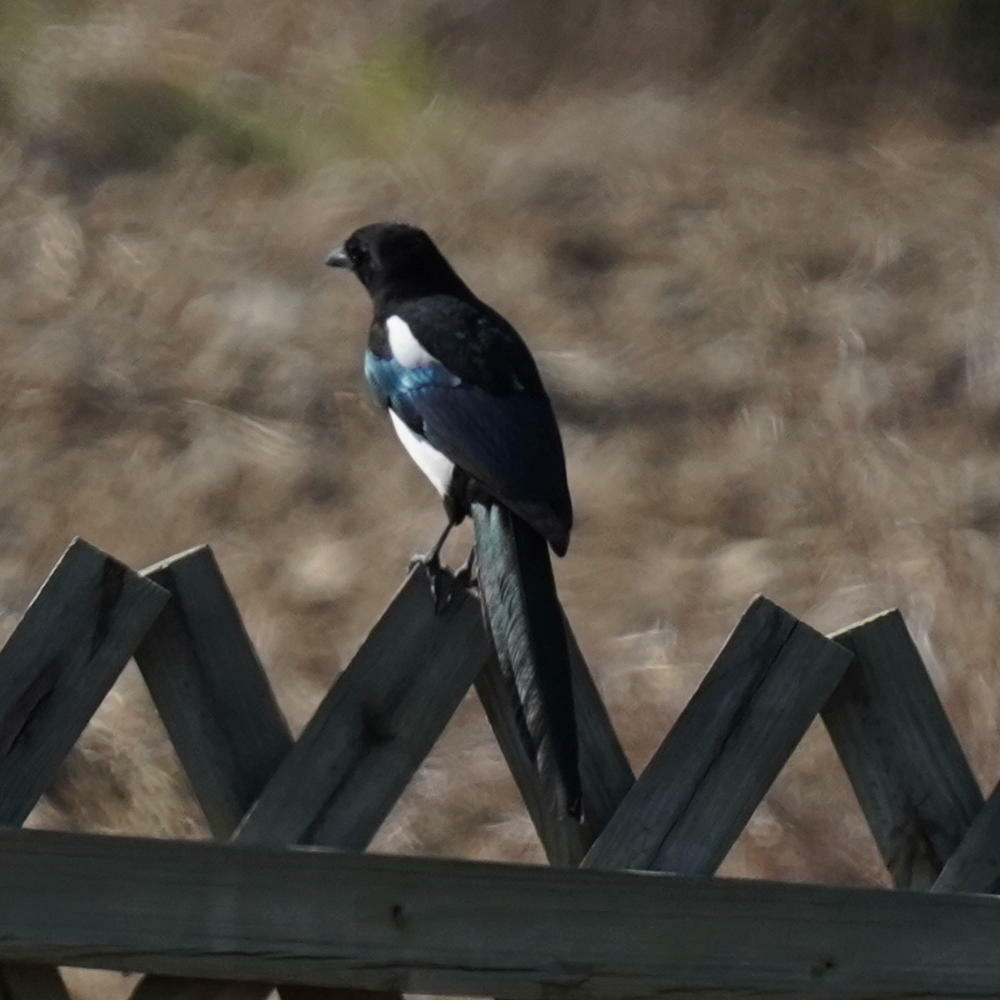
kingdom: Animalia
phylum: Chordata
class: Aves
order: Passeriformes
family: Corvidae
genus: Pica
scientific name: Pica pica
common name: Eurasian magpie
